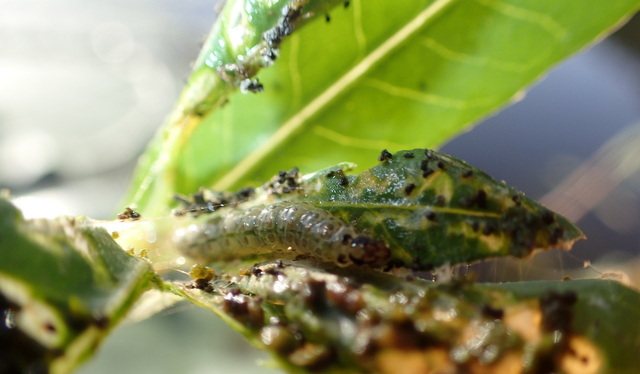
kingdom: Animalia
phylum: Arthropoda
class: Insecta
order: Lepidoptera
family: Crambidae
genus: Herpetogramma
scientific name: Herpetogramma bipunctalis
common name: Southern beet webworm
